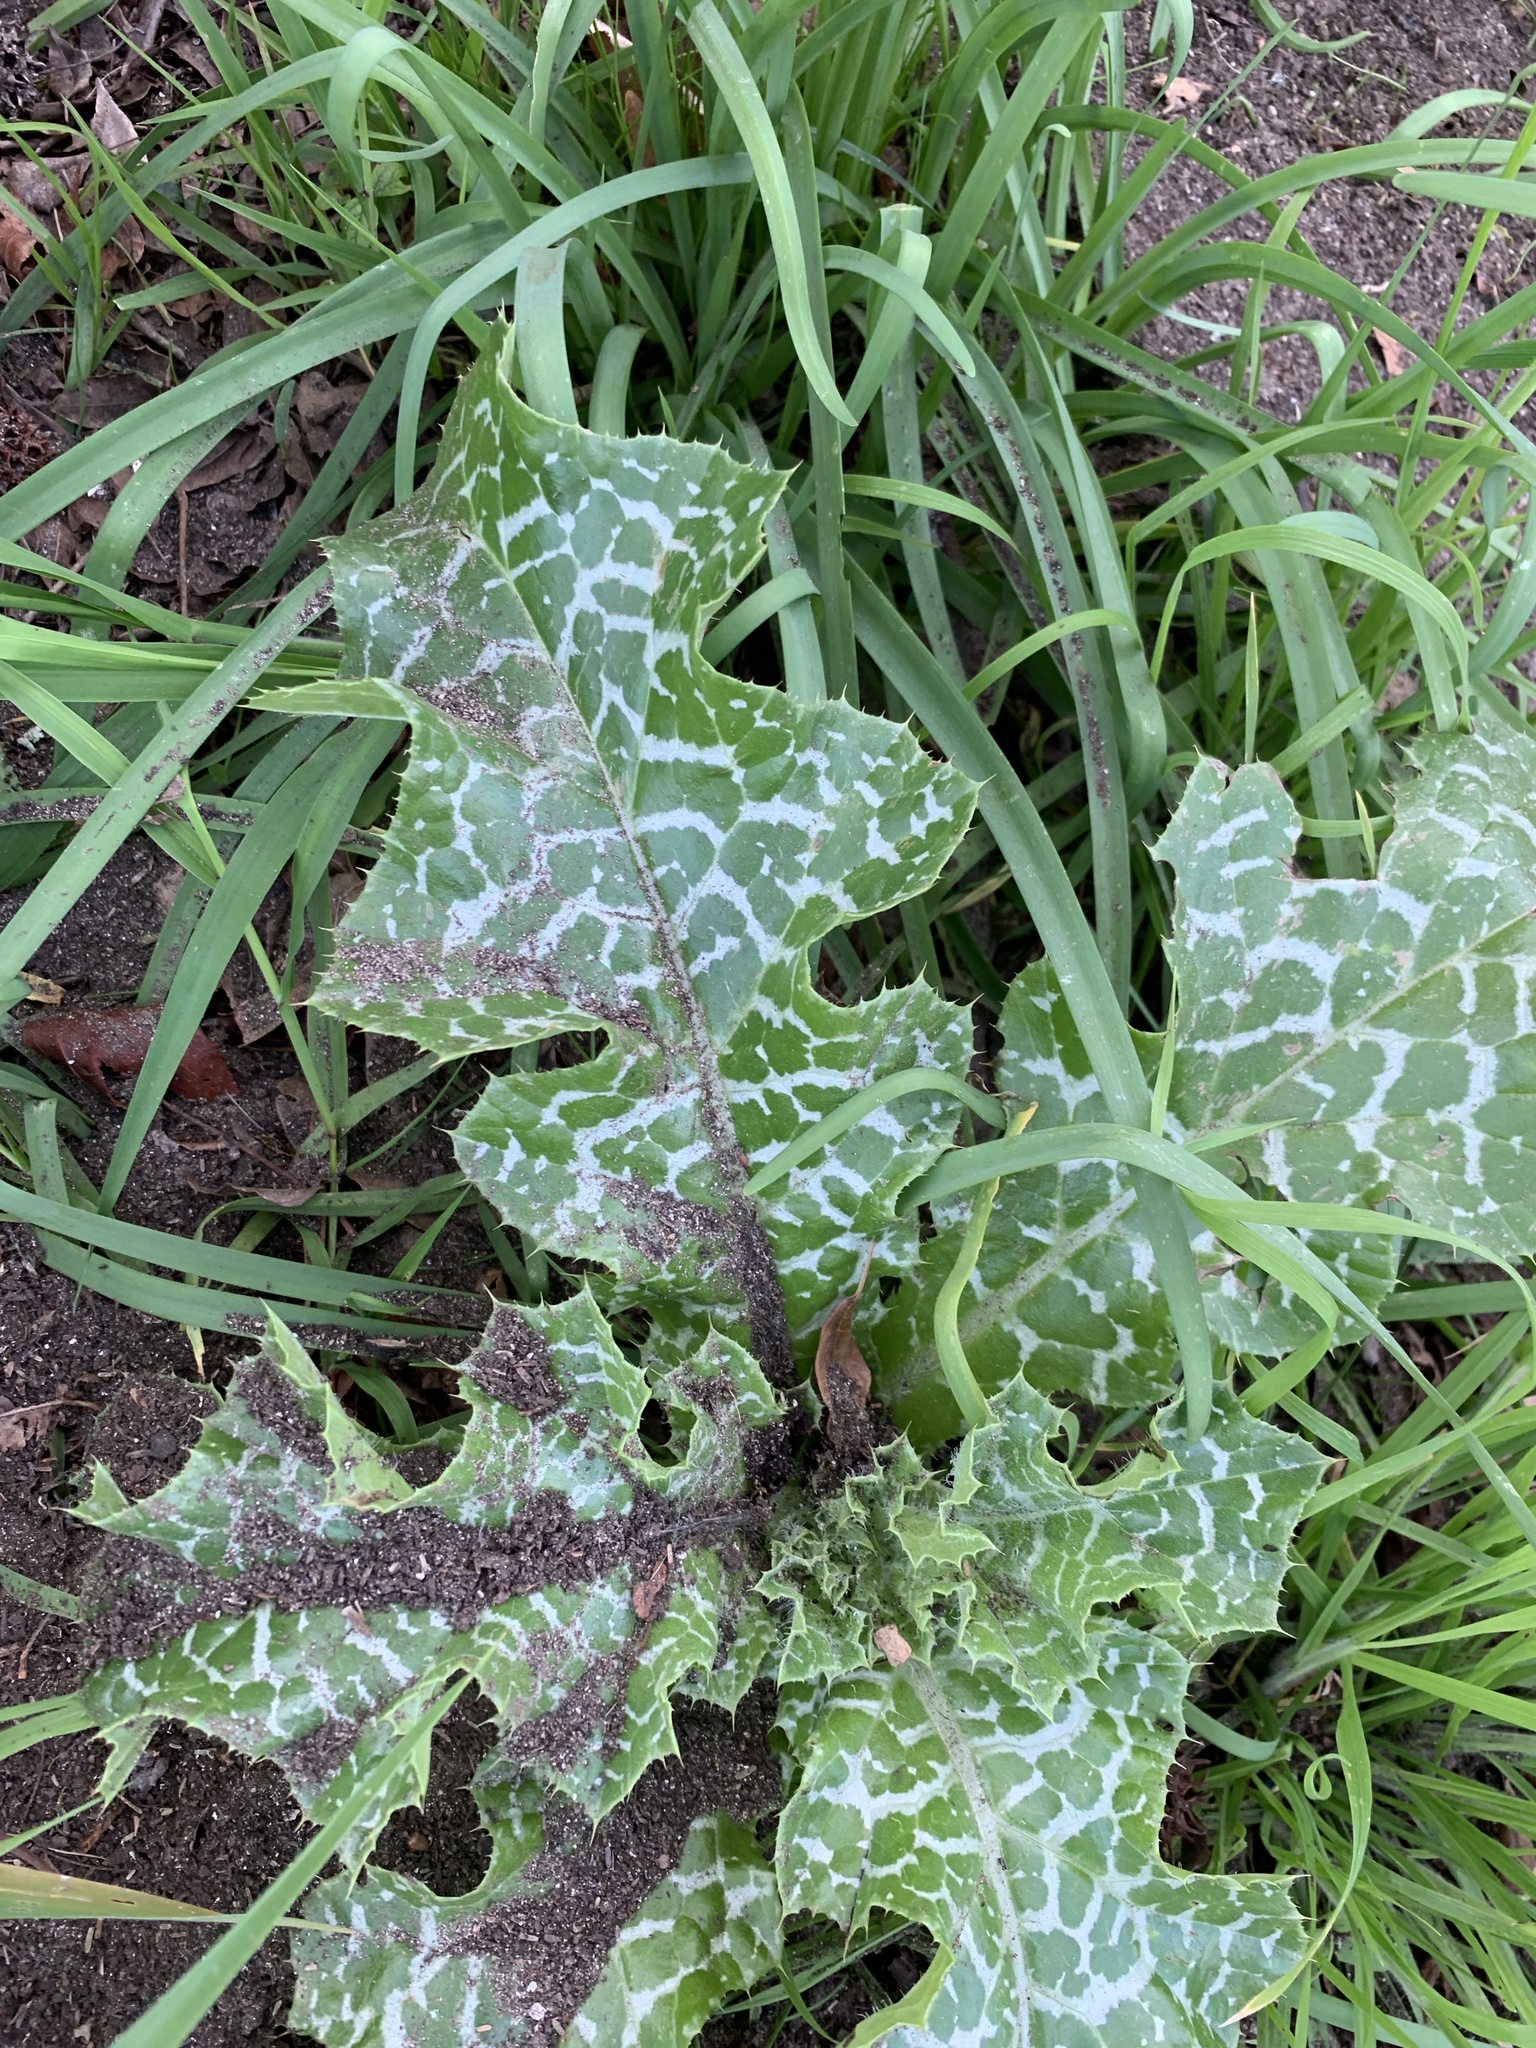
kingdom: Plantae
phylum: Tracheophyta
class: Magnoliopsida
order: Asterales
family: Asteraceae
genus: Silybum
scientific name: Silybum marianum
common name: Milk thistle
